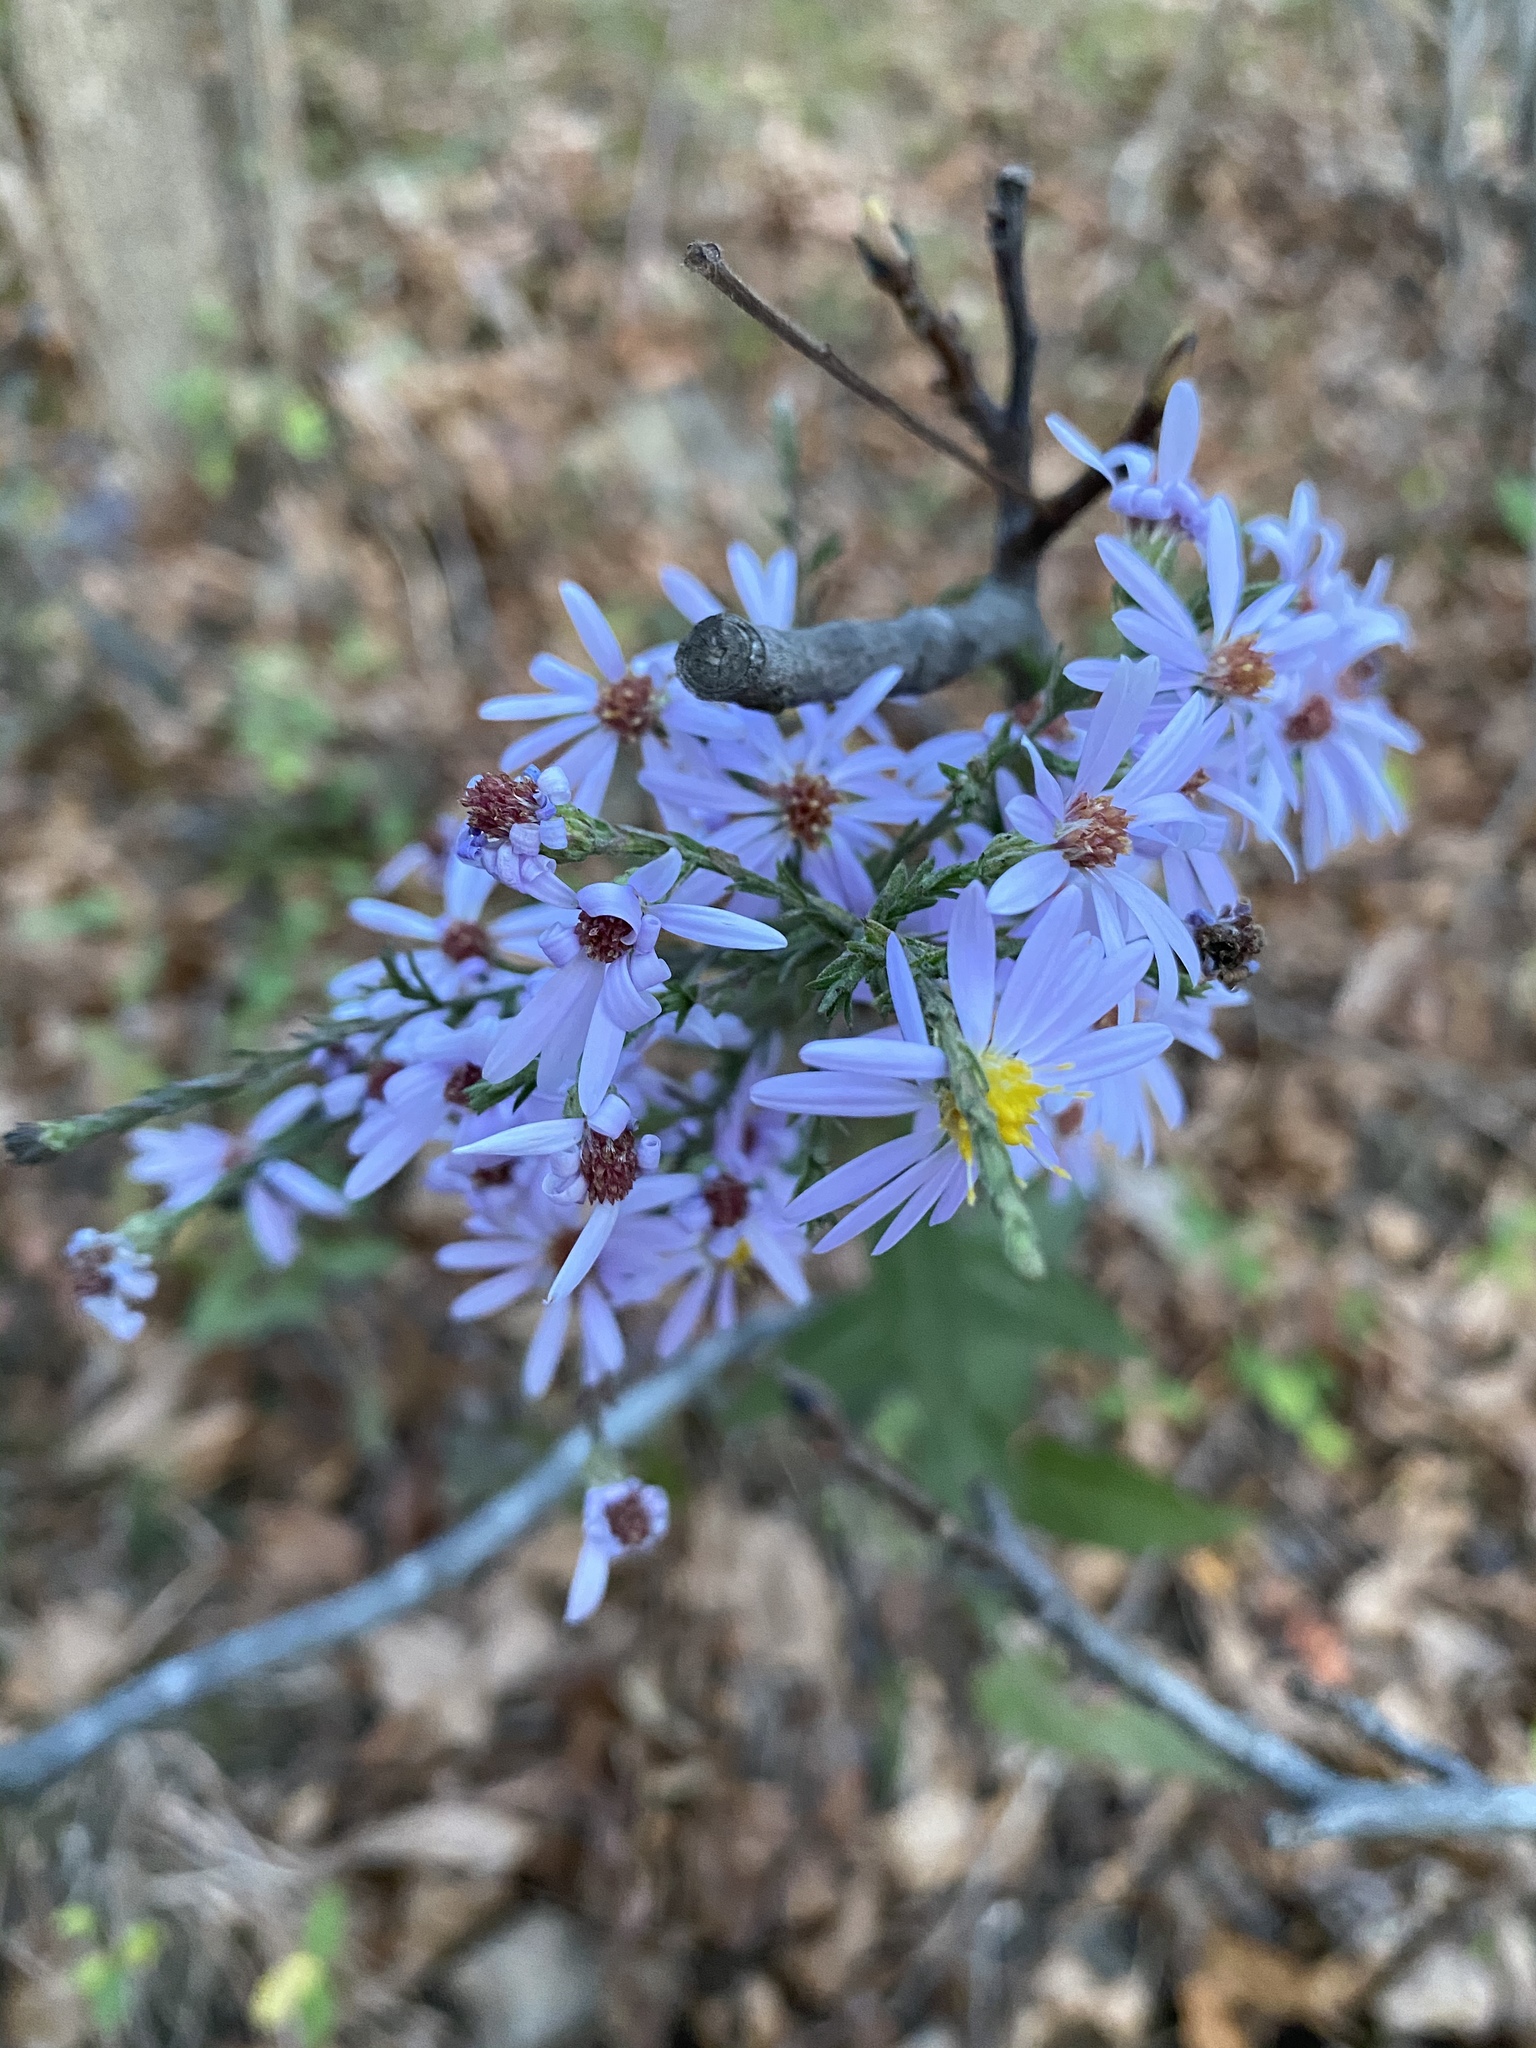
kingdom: Plantae
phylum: Tracheophyta
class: Magnoliopsida
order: Asterales
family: Asteraceae
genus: Symphyotrichum
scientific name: Symphyotrichum undulatum
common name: Clasping heart-leaf aster
